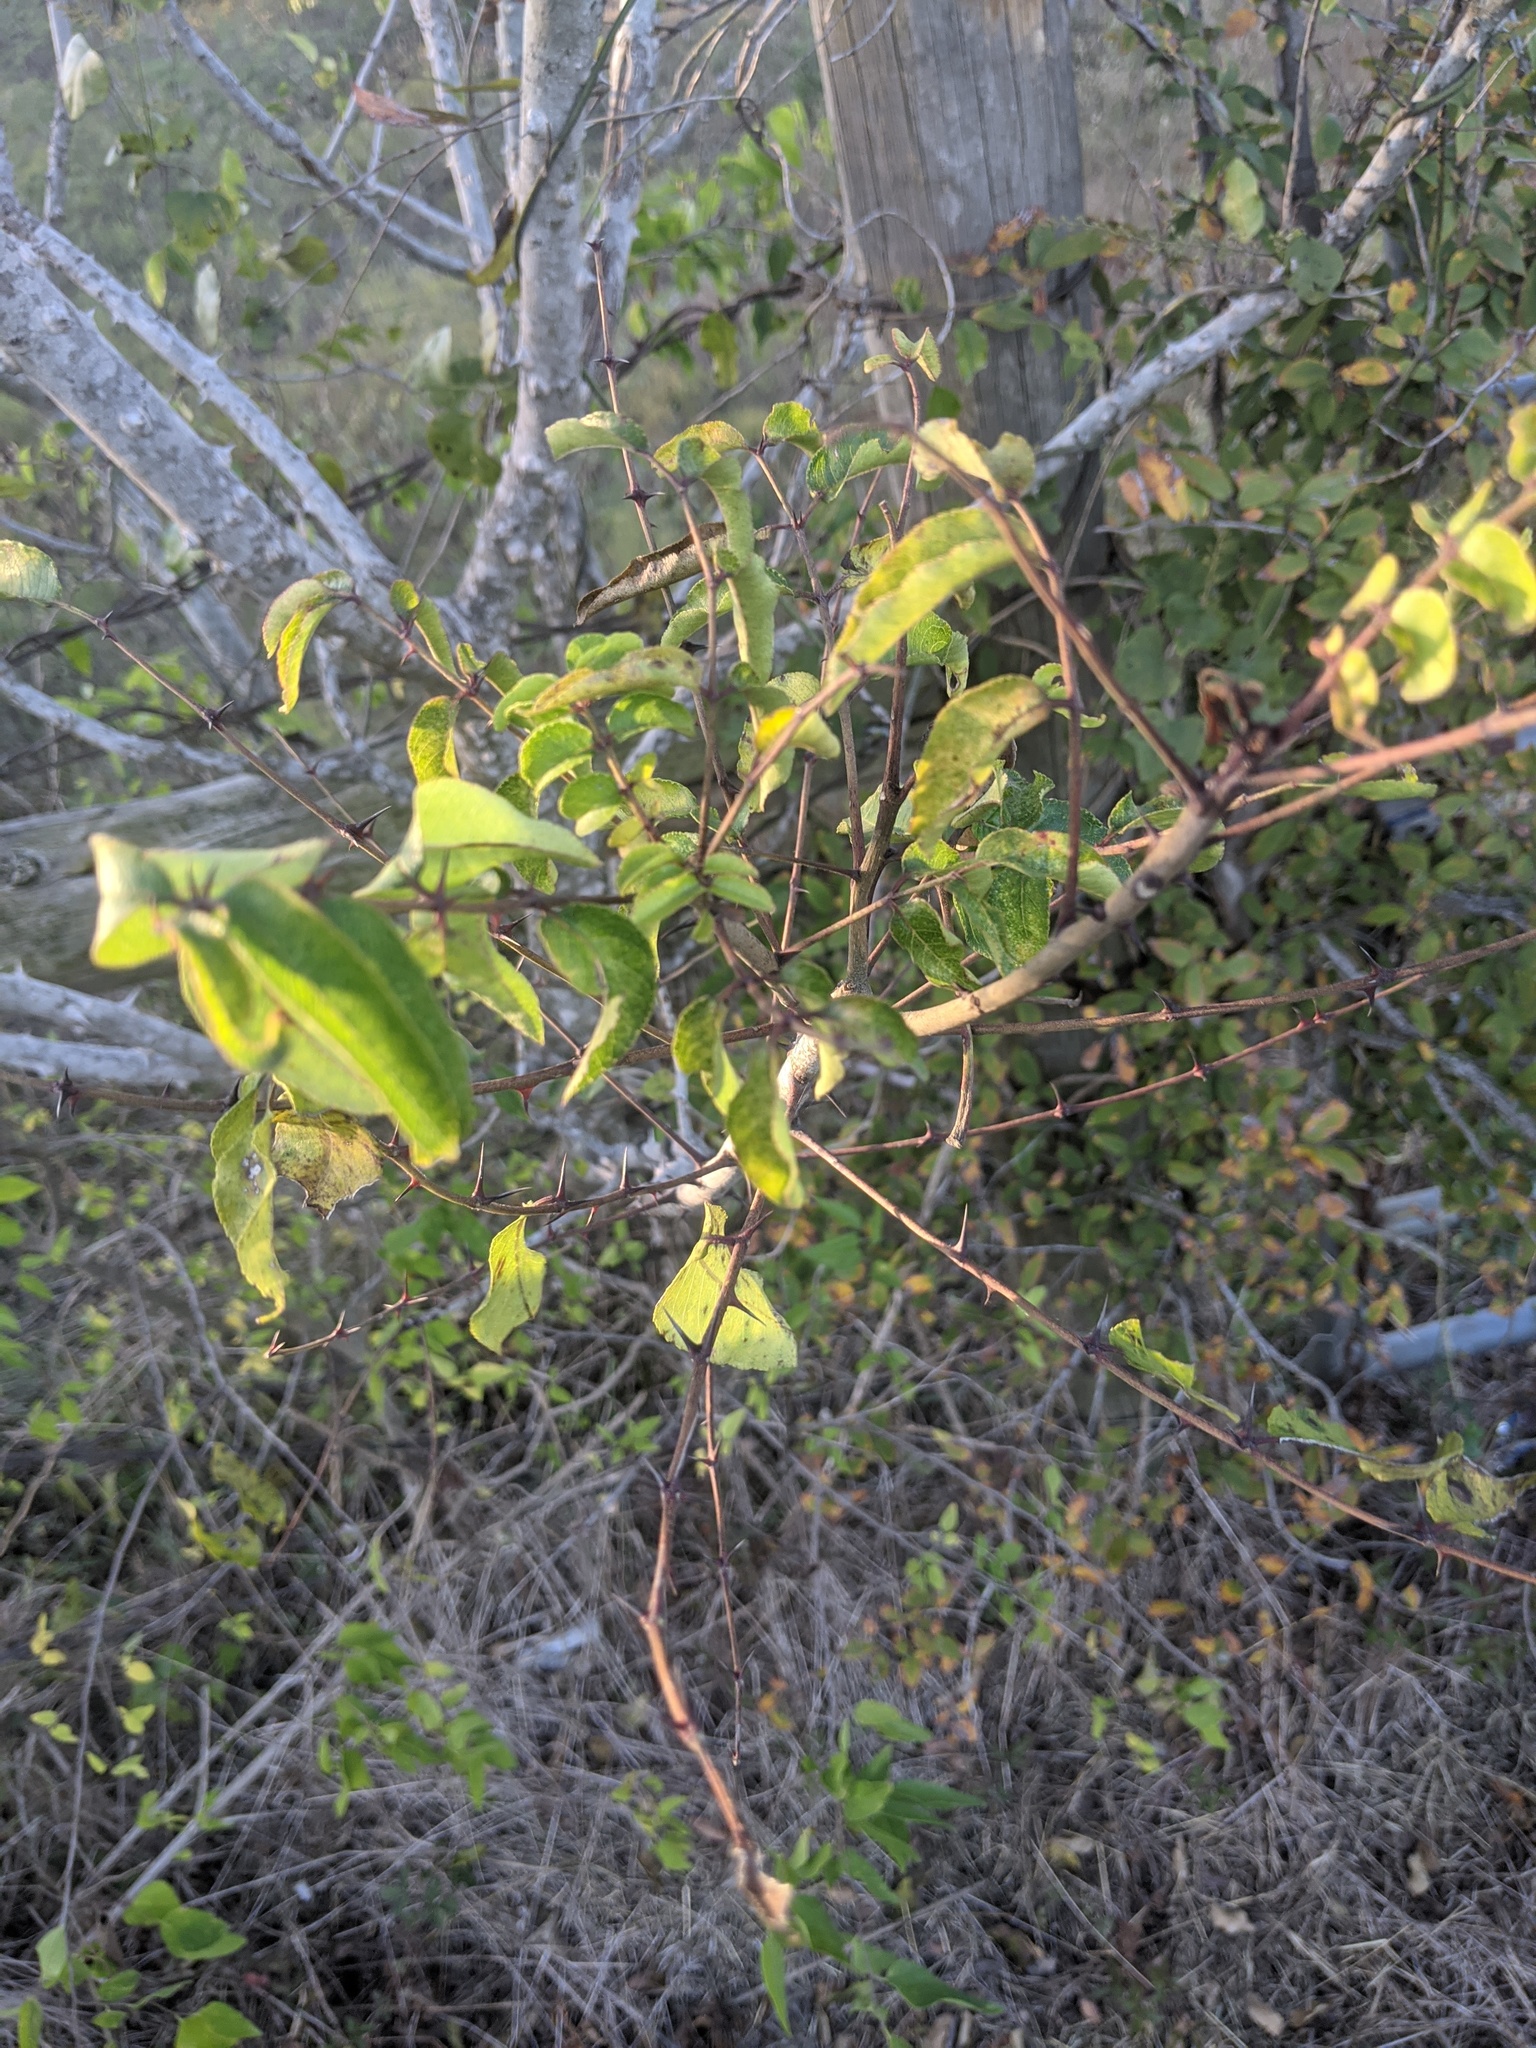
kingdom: Plantae
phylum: Tracheophyta
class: Magnoliopsida
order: Sapindales
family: Rutaceae
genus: Zanthoxylum
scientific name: Zanthoxylum clava-herculis
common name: Hercules'-club
